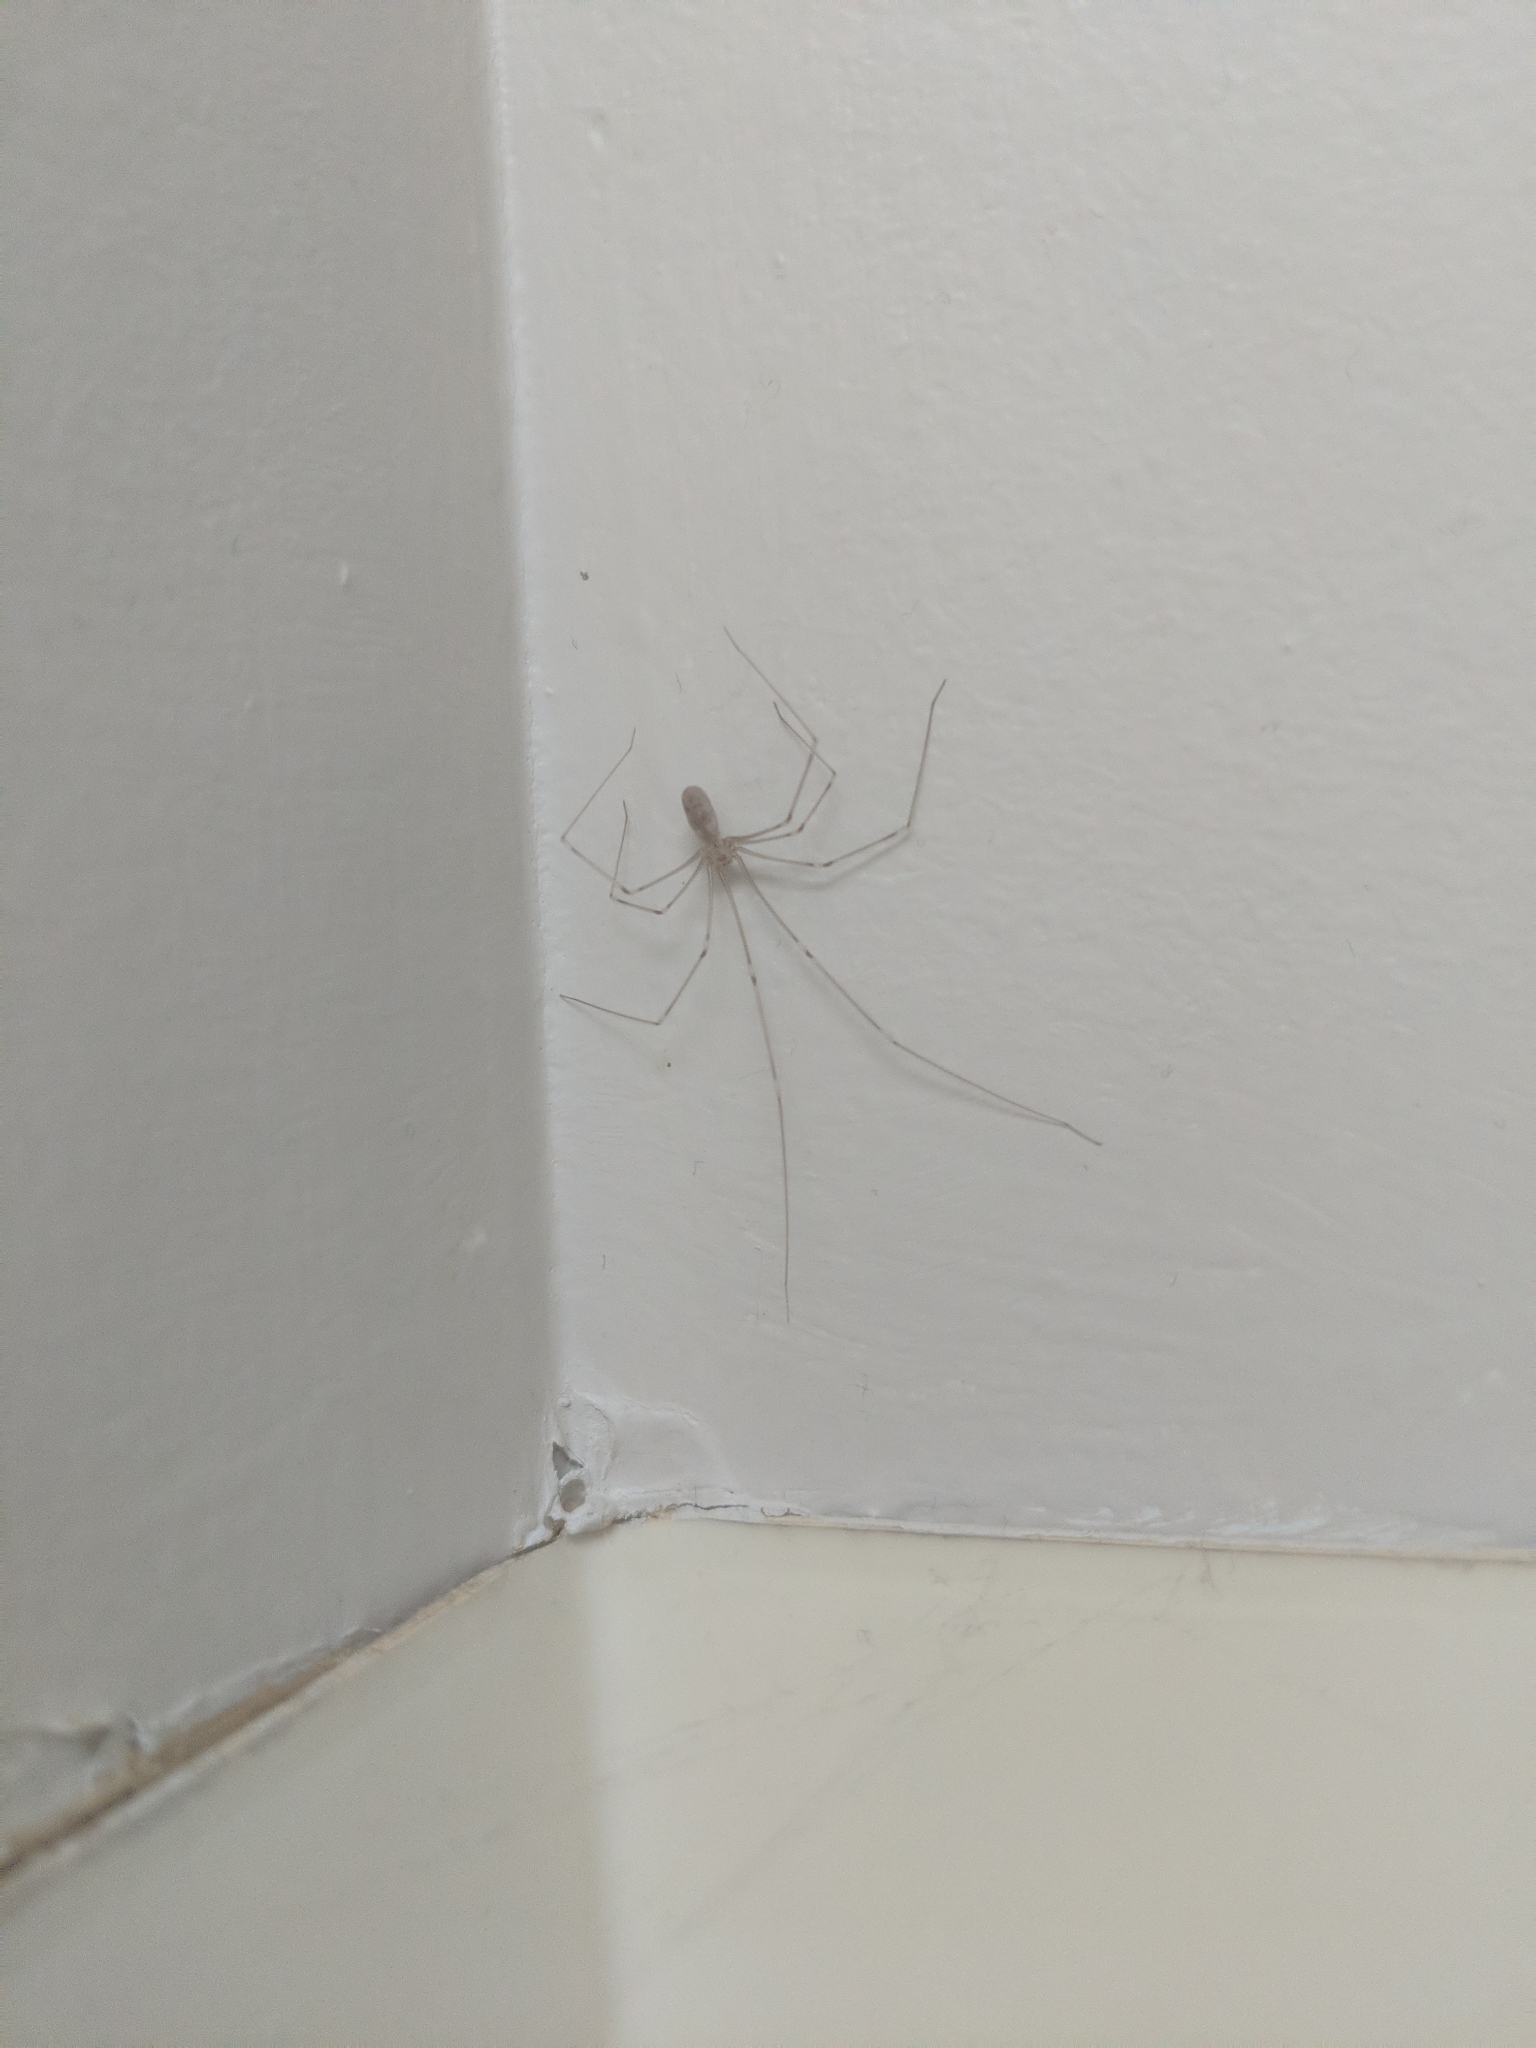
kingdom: Animalia
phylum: Arthropoda
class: Arachnida
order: Araneae
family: Pholcidae
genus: Pholcus
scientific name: Pholcus phalangioides
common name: Longbodied cellar spider
